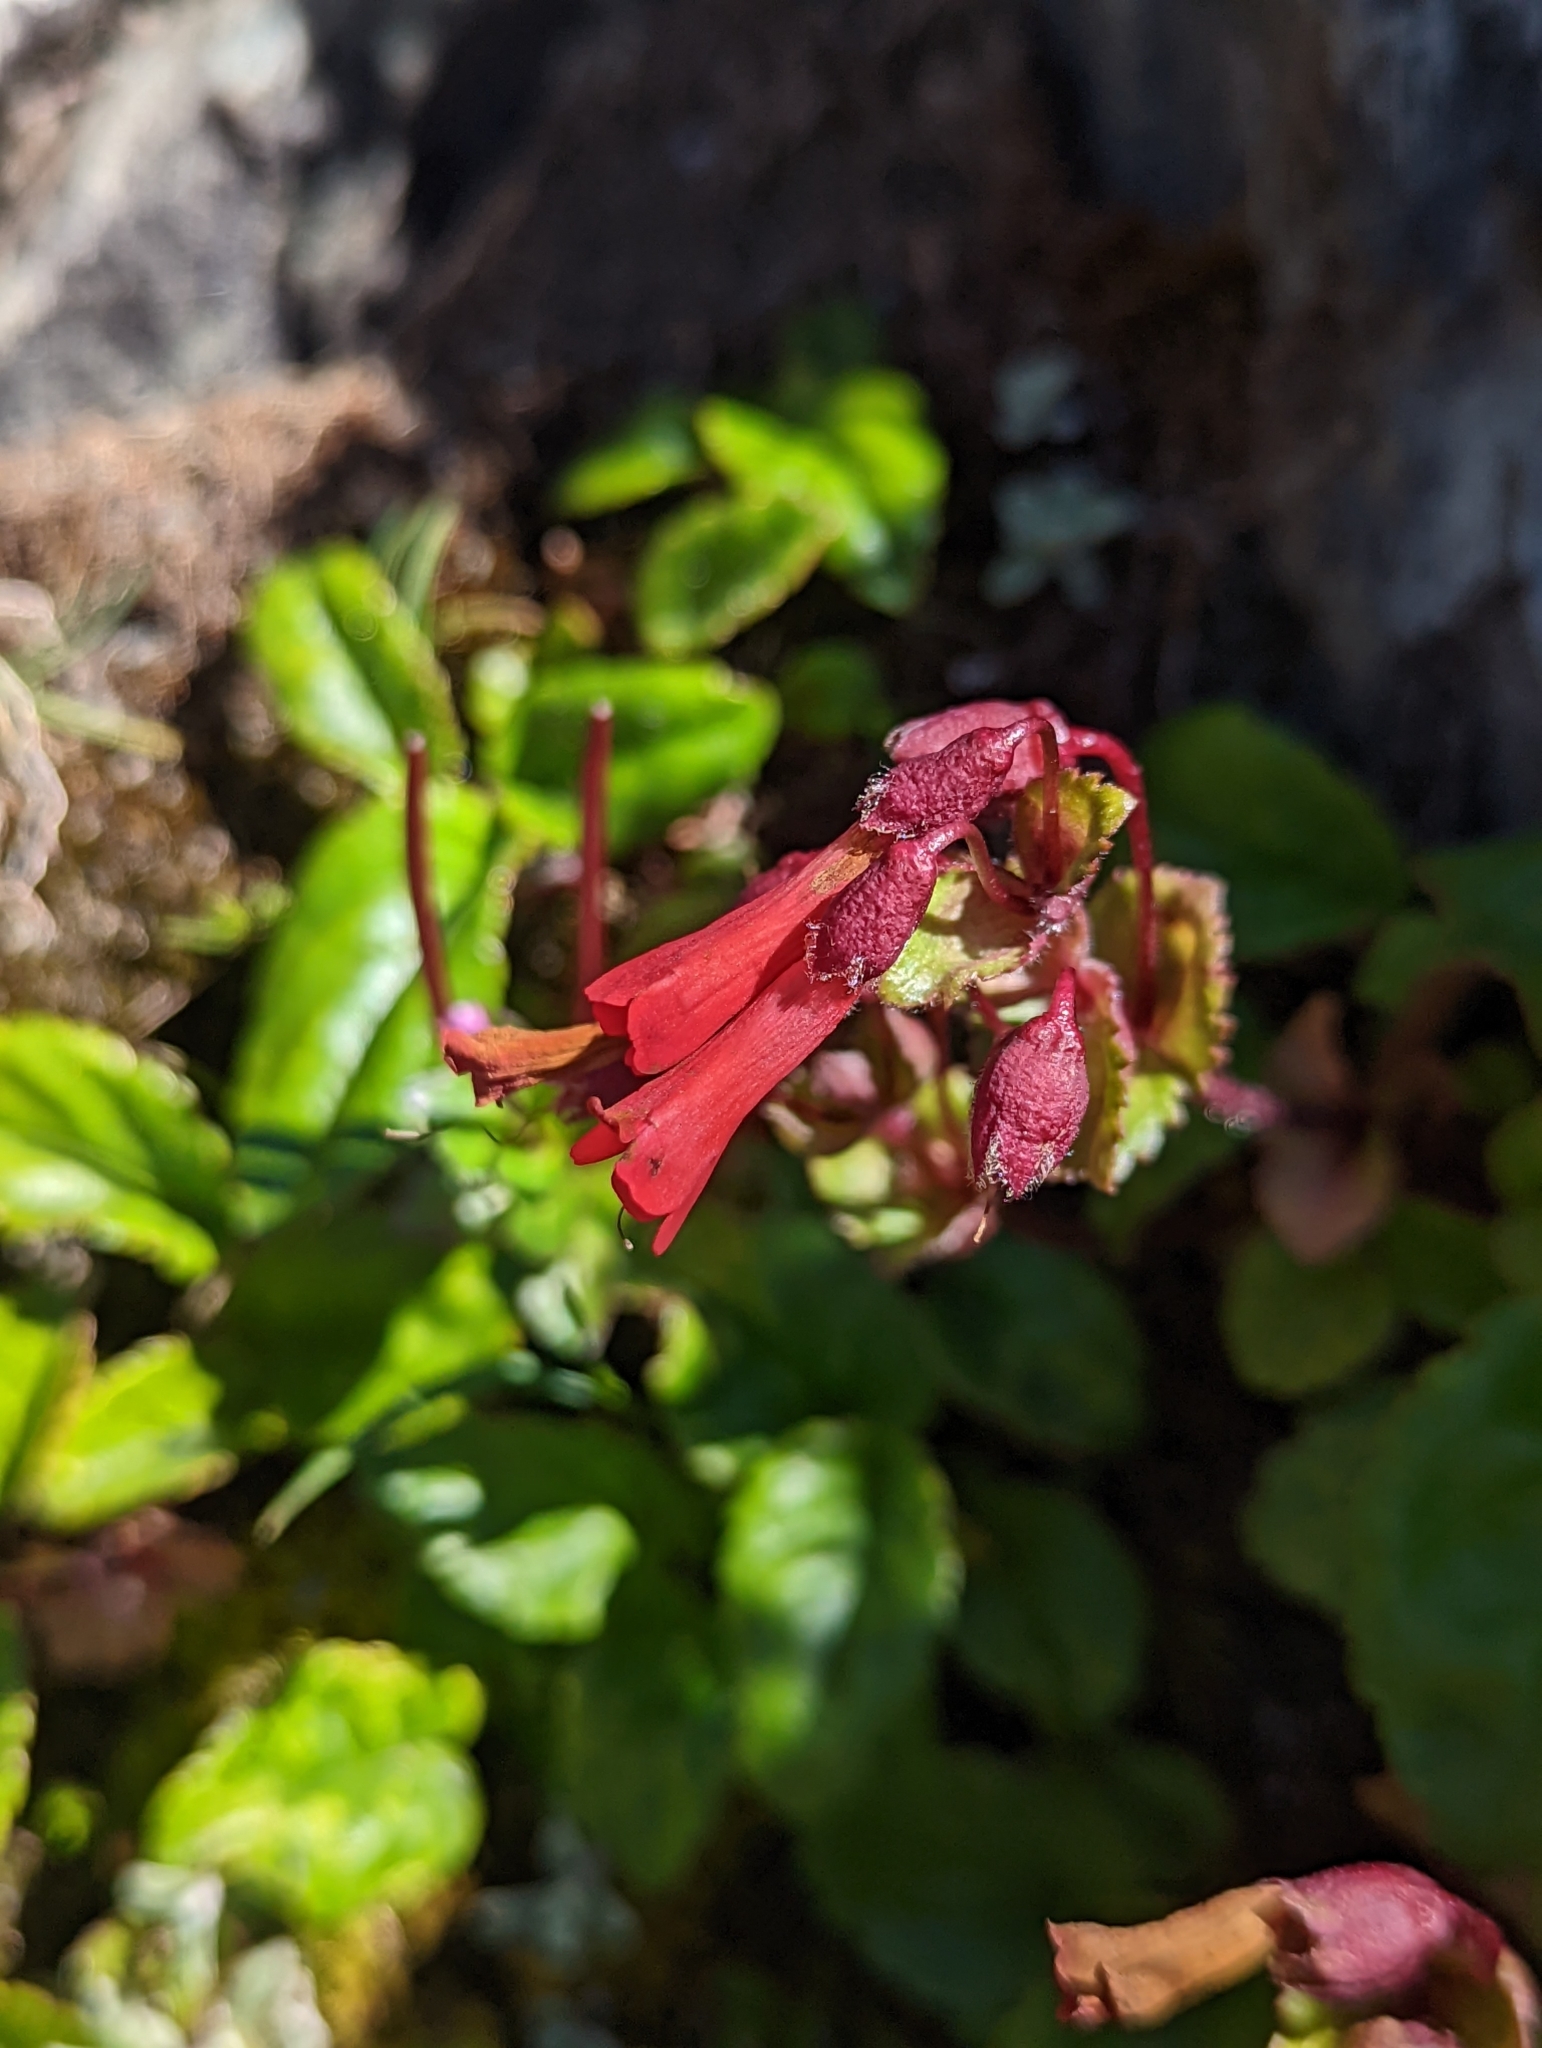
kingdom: Plantae
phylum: Tracheophyta
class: Magnoliopsida
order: Lamiales
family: Plantaginaceae
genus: Ourisia
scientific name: Ourisia ruellioides
